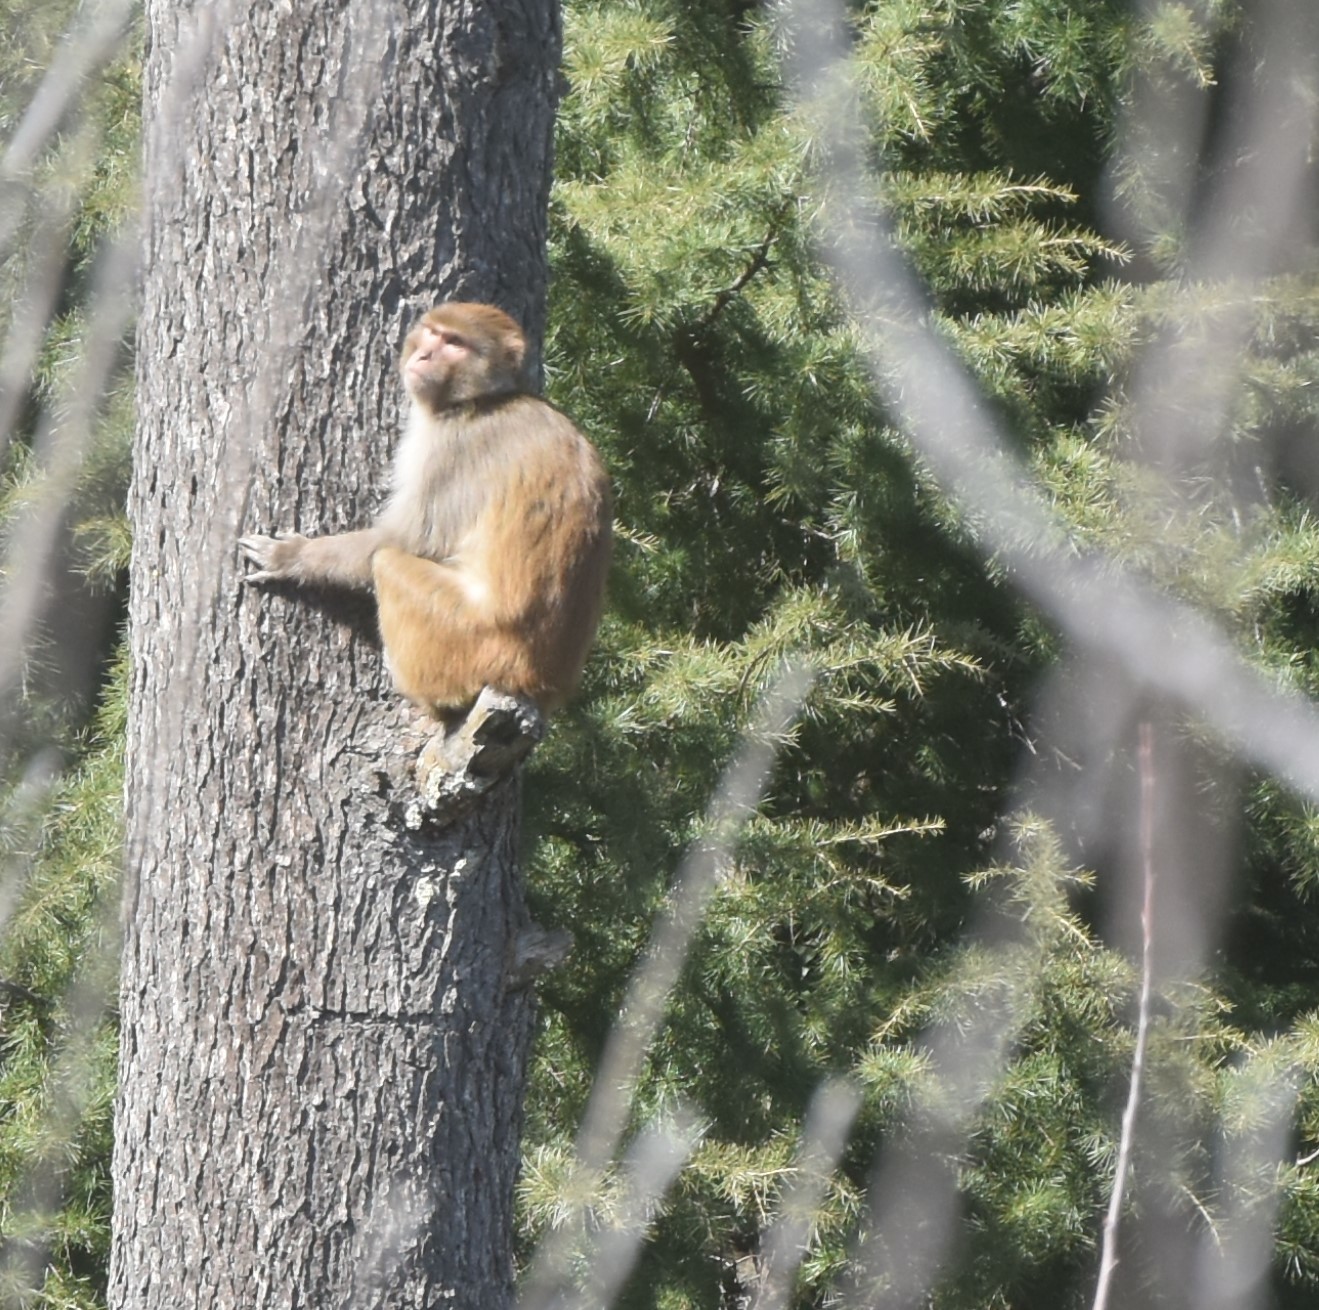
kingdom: Animalia
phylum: Chordata
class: Mammalia
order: Primates
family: Cercopithecidae
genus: Macaca
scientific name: Macaca mulatta
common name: Rhesus monkey
